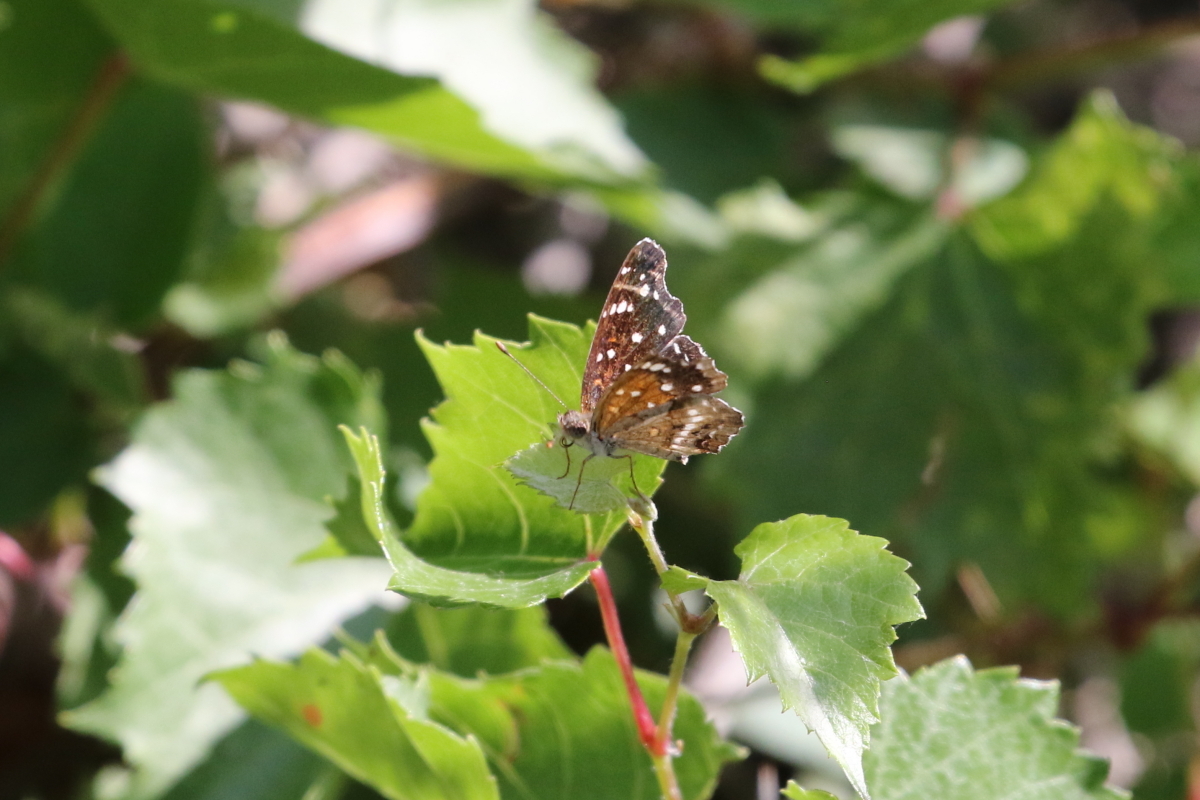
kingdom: Animalia
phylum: Arthropoda
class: Insecta
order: Lepidoptera
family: Nymphalidae
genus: Anthanassa
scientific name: Anthanassa texana
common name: Texan crescent
